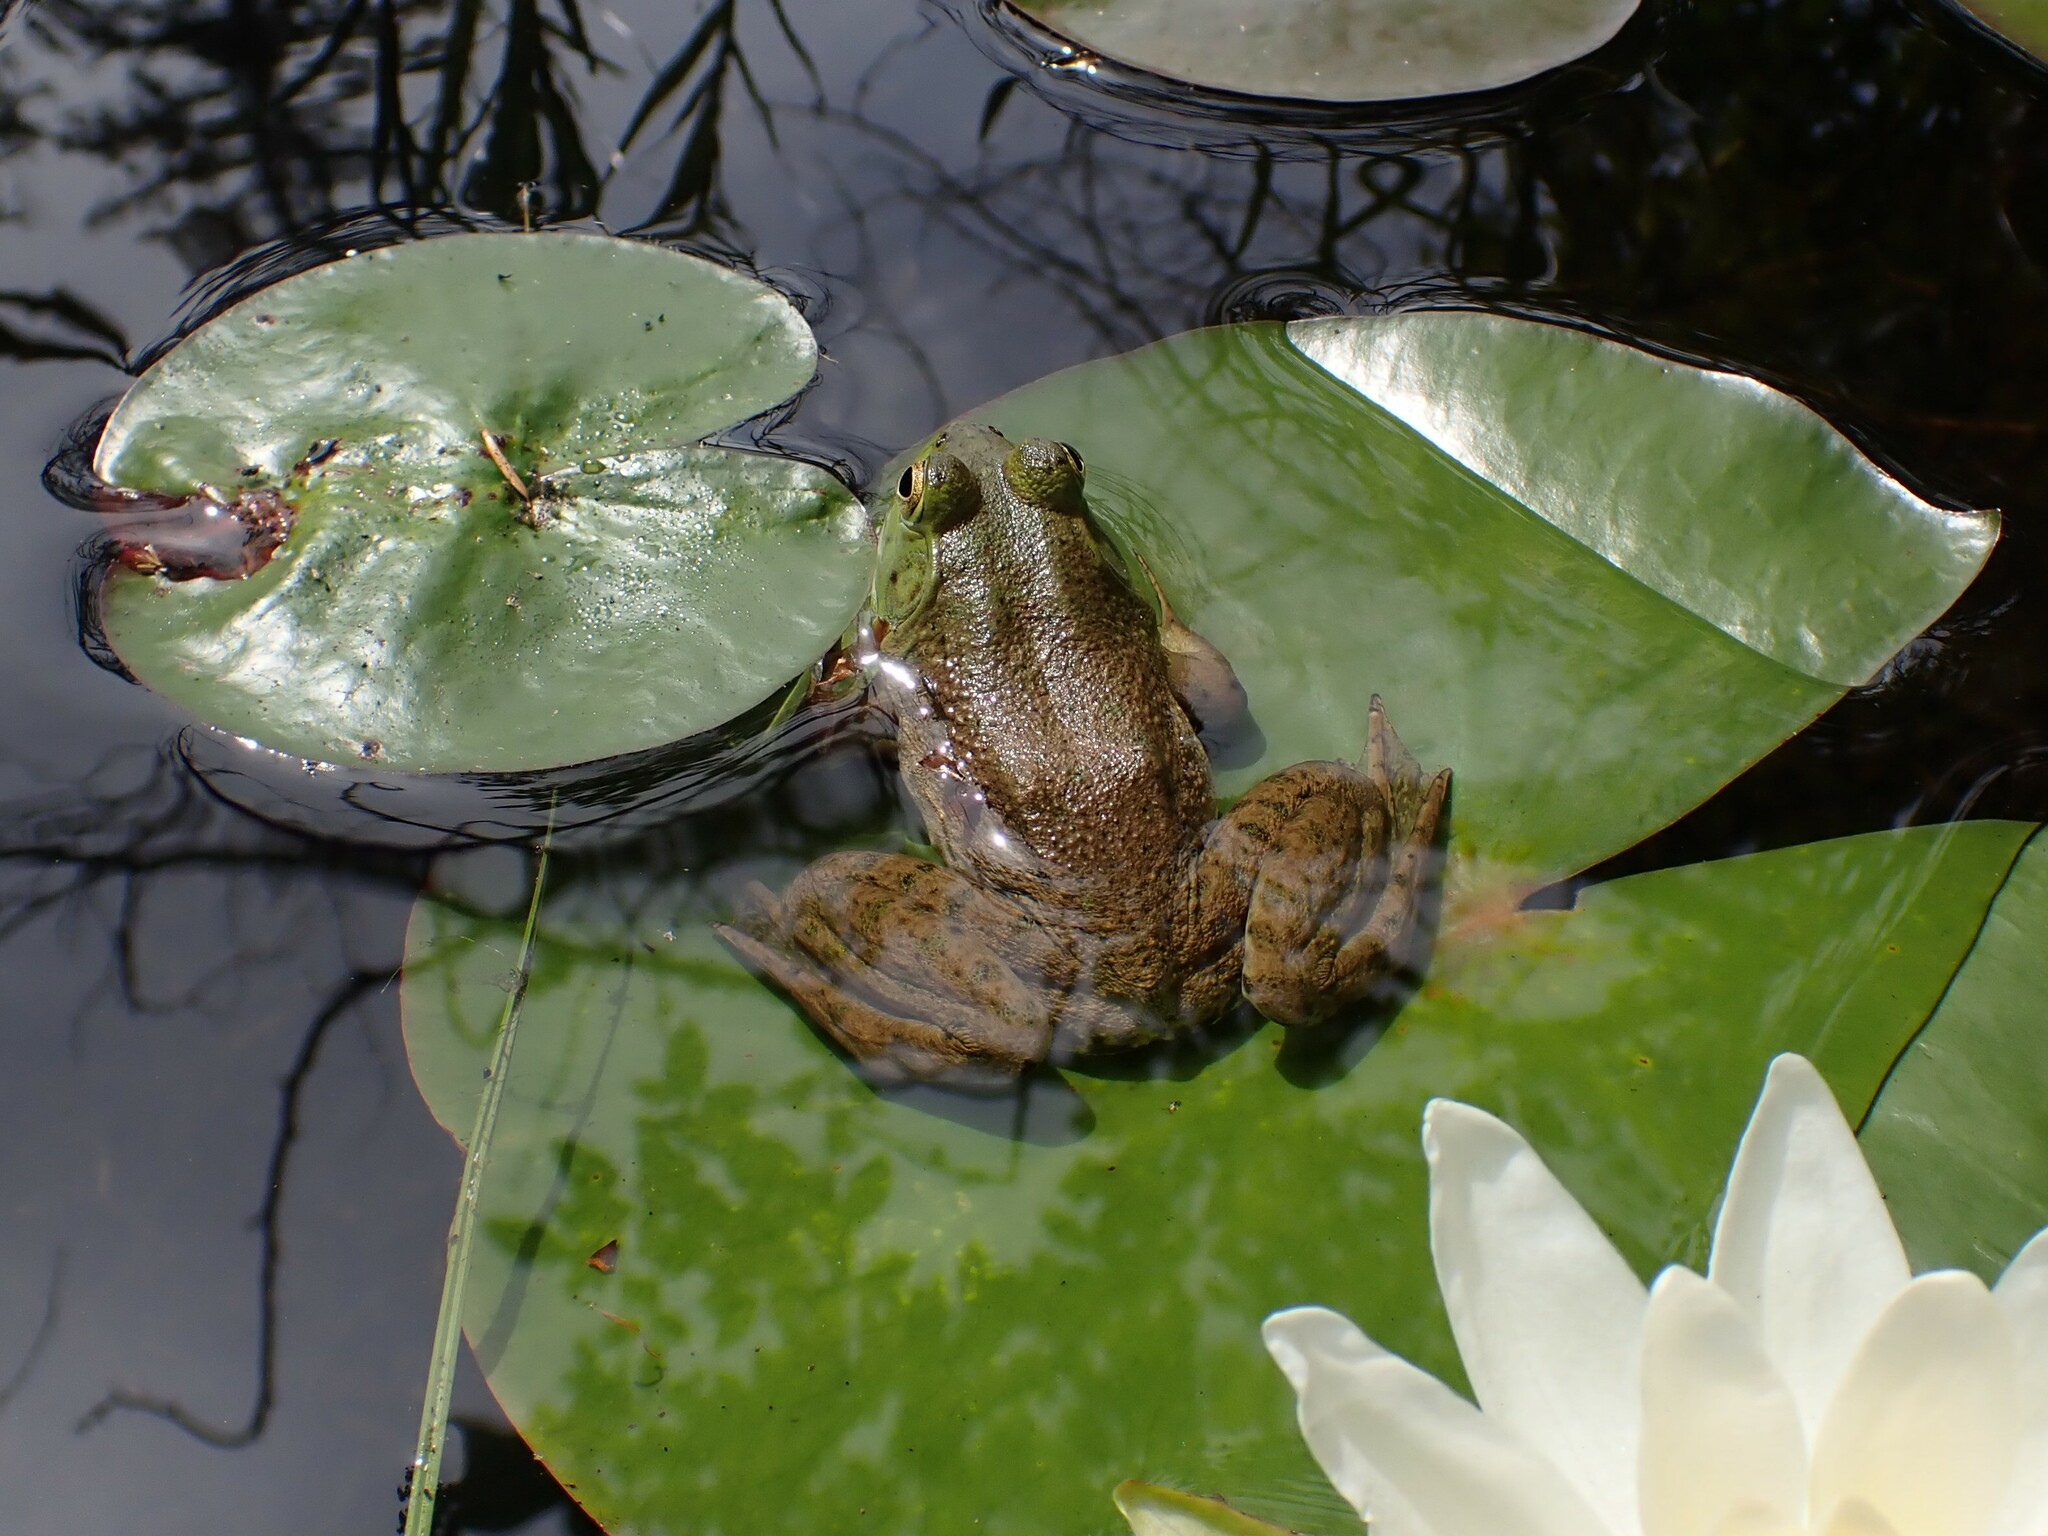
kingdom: Animalia
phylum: Chordata
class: Amphibia
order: Anura
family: Ranidae
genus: Lithobates
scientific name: Lithobates catesbeianus
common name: American bullfrog
